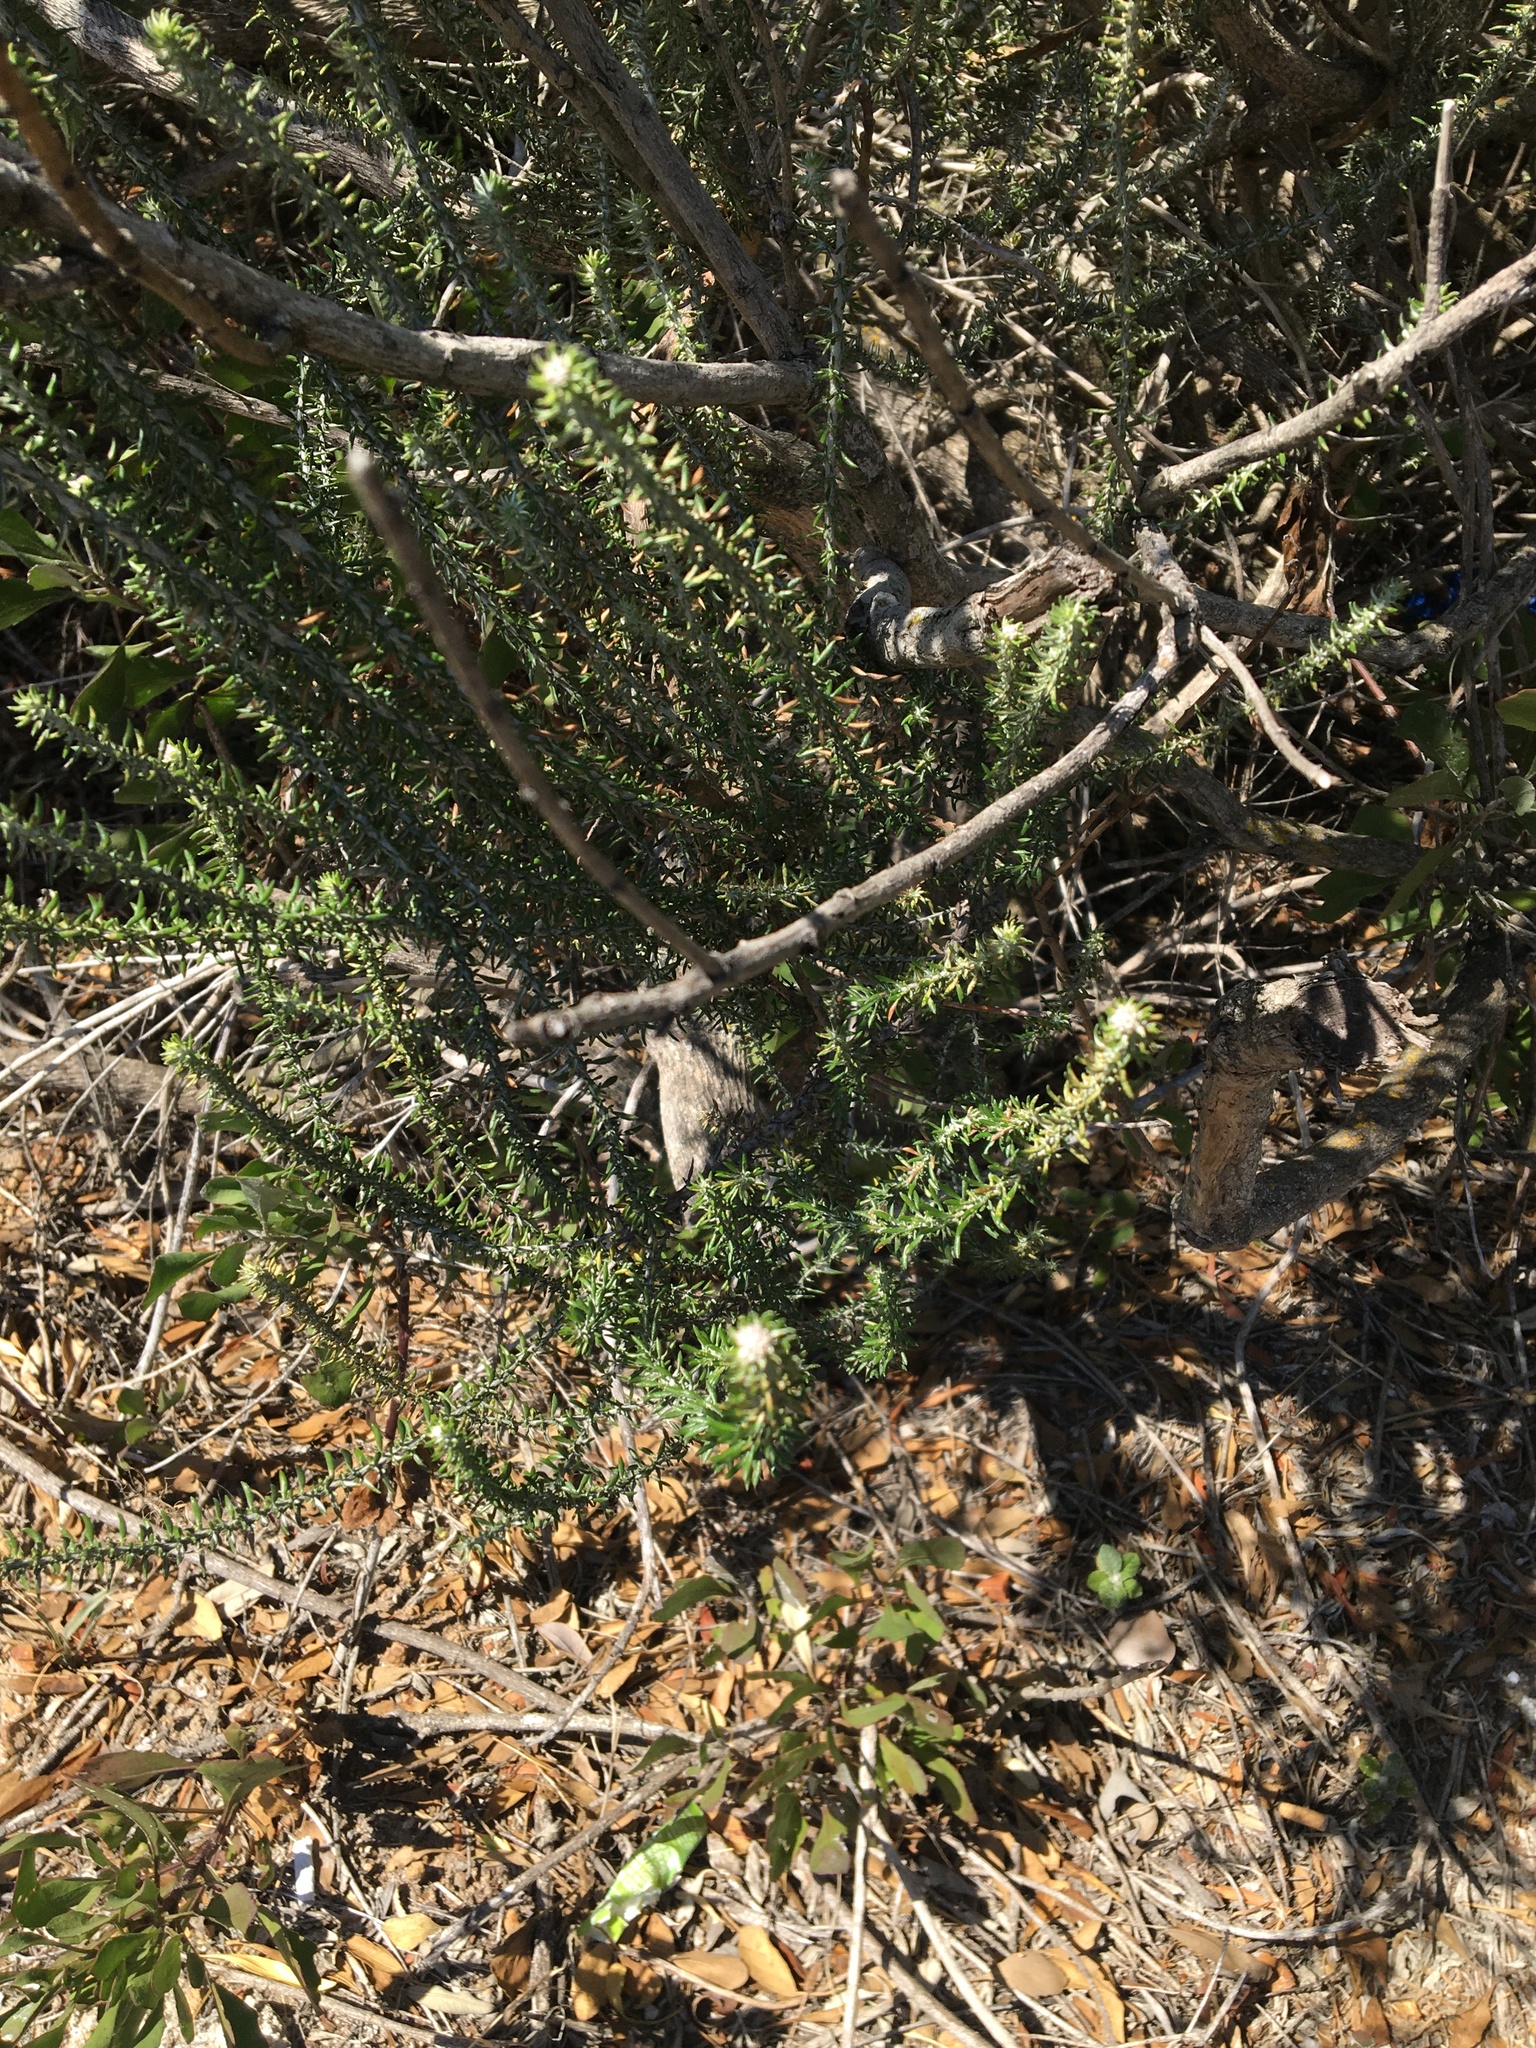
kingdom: Plantae
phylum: Tracheophyta
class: Magnoliopsida
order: Asterales
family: Asteraceae
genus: Metalasia
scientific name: Metalasia densa
